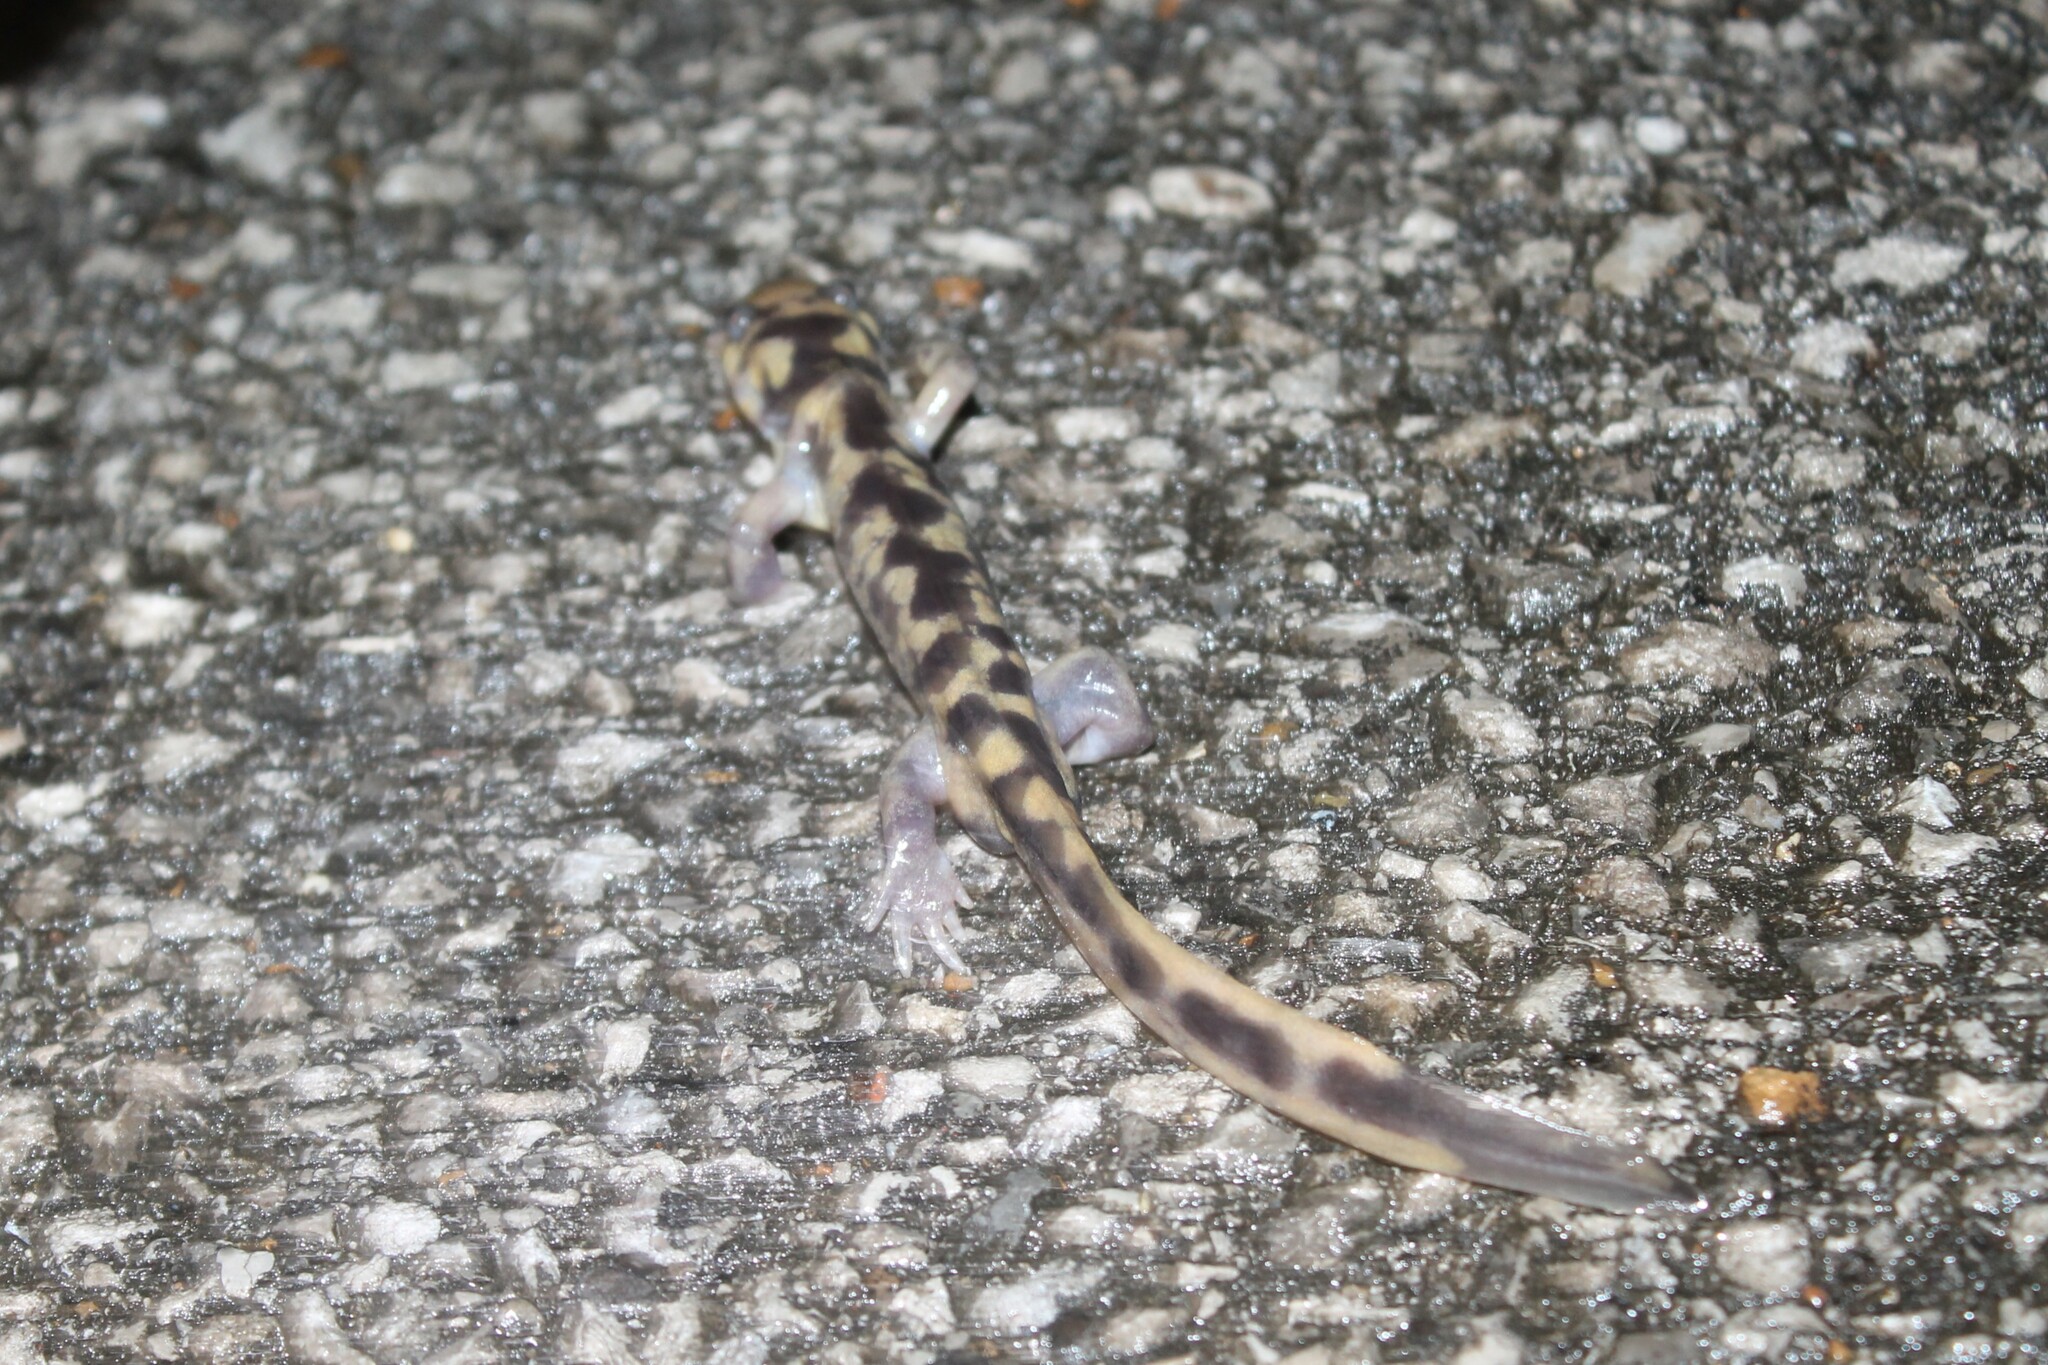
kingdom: Animalia
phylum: Chordata
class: Amphibia
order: Caudata
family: Ambystomatidae
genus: Ambystoma
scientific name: Ambystoma tigrinum
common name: Tiger salamander
